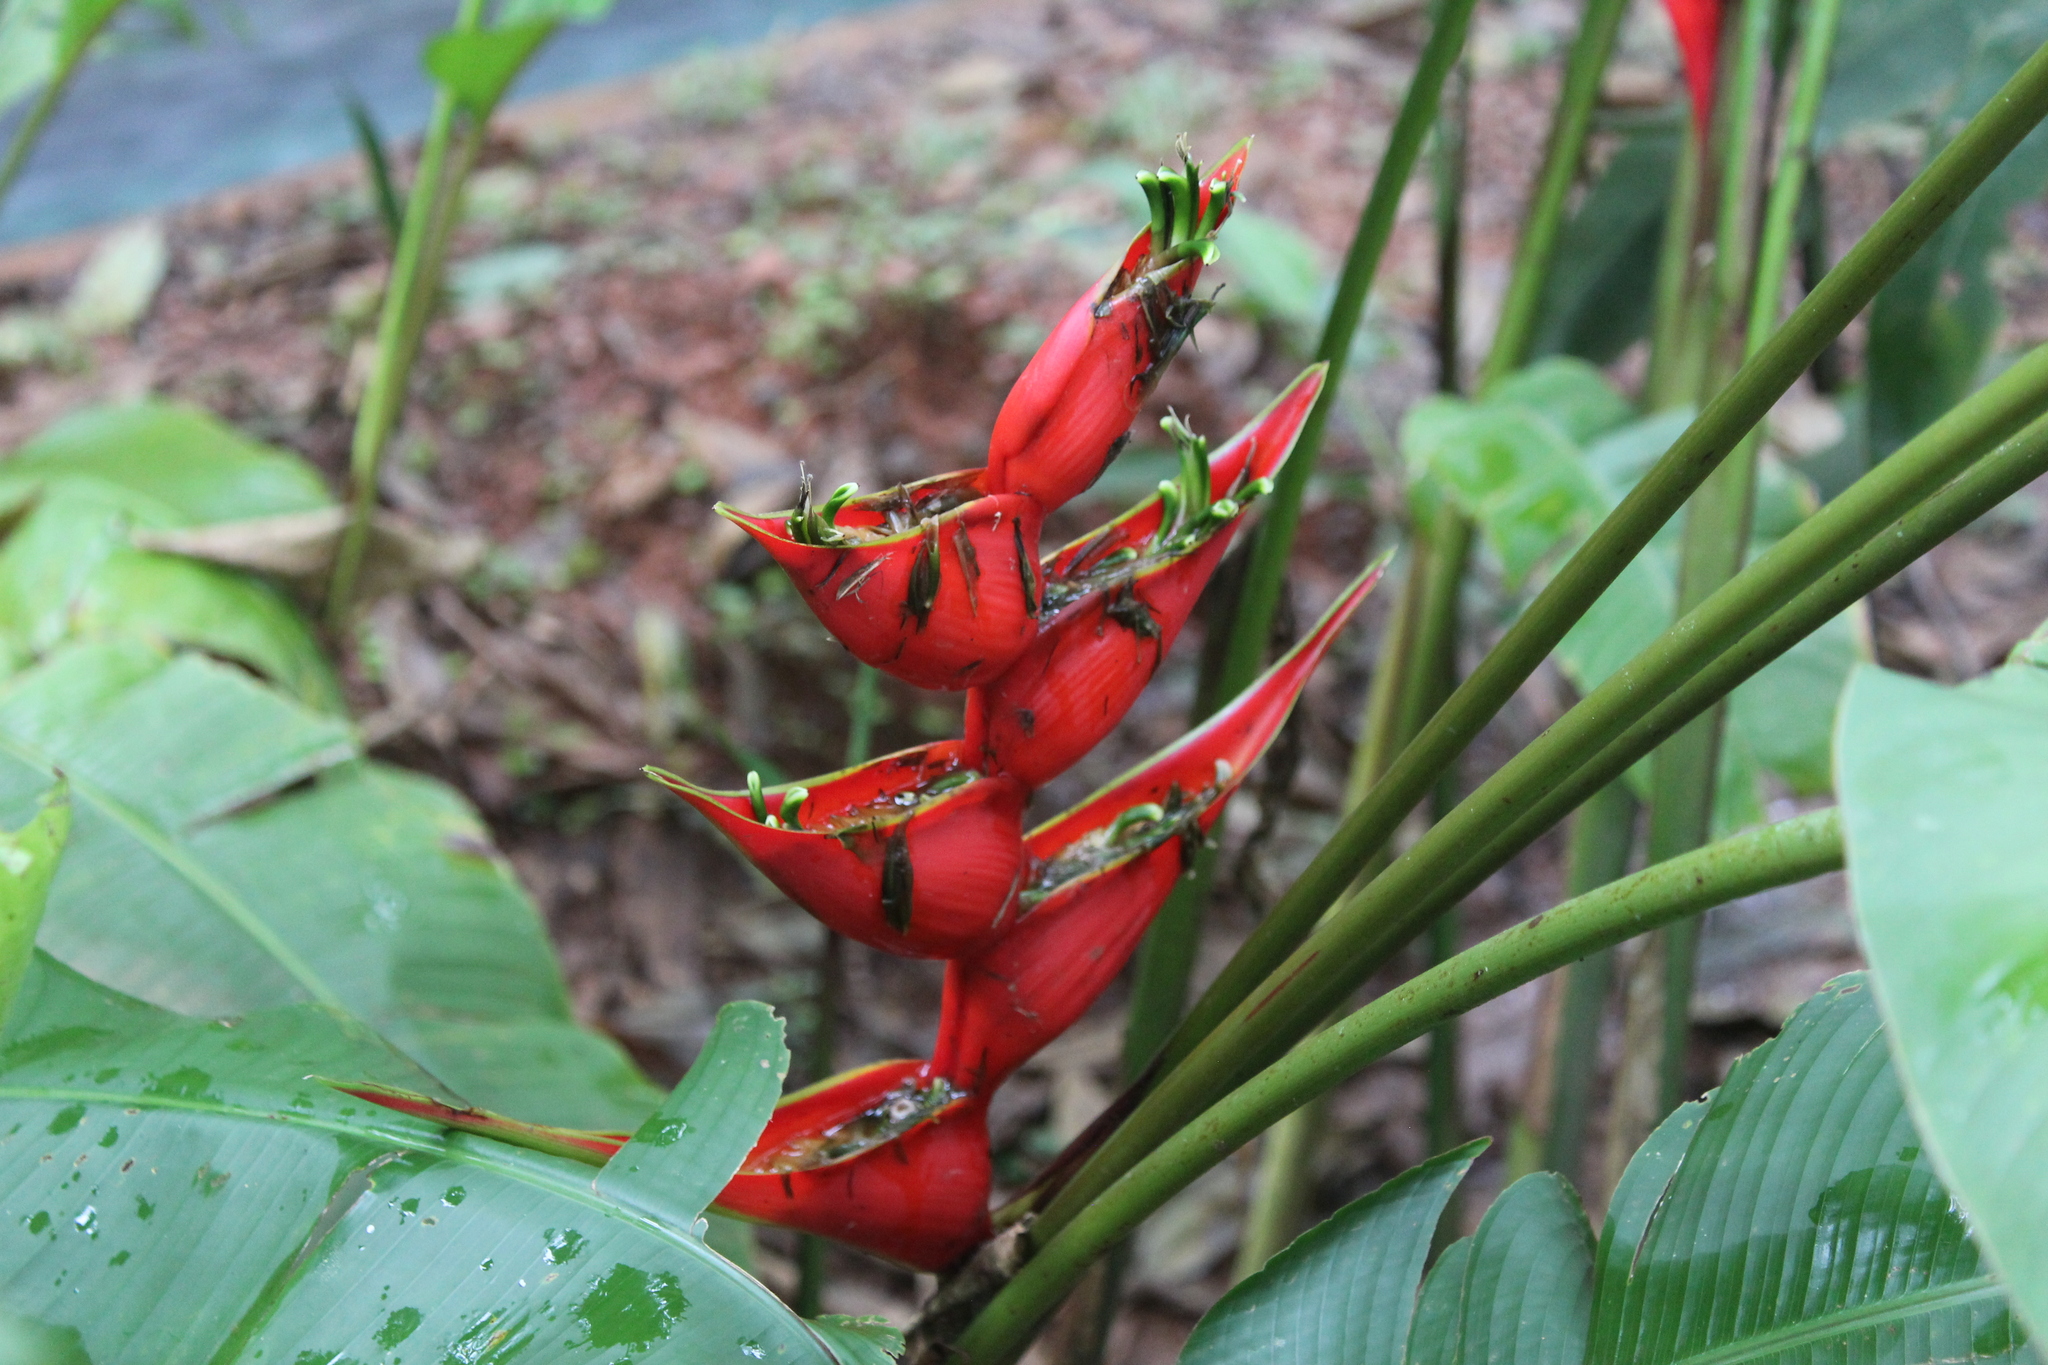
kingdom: Plantae
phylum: Tracheophyta
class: Liliopsida
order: Zingiberales
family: Heliconiaceae
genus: Heliconia
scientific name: Heliconia stricta
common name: Small lobster claw
